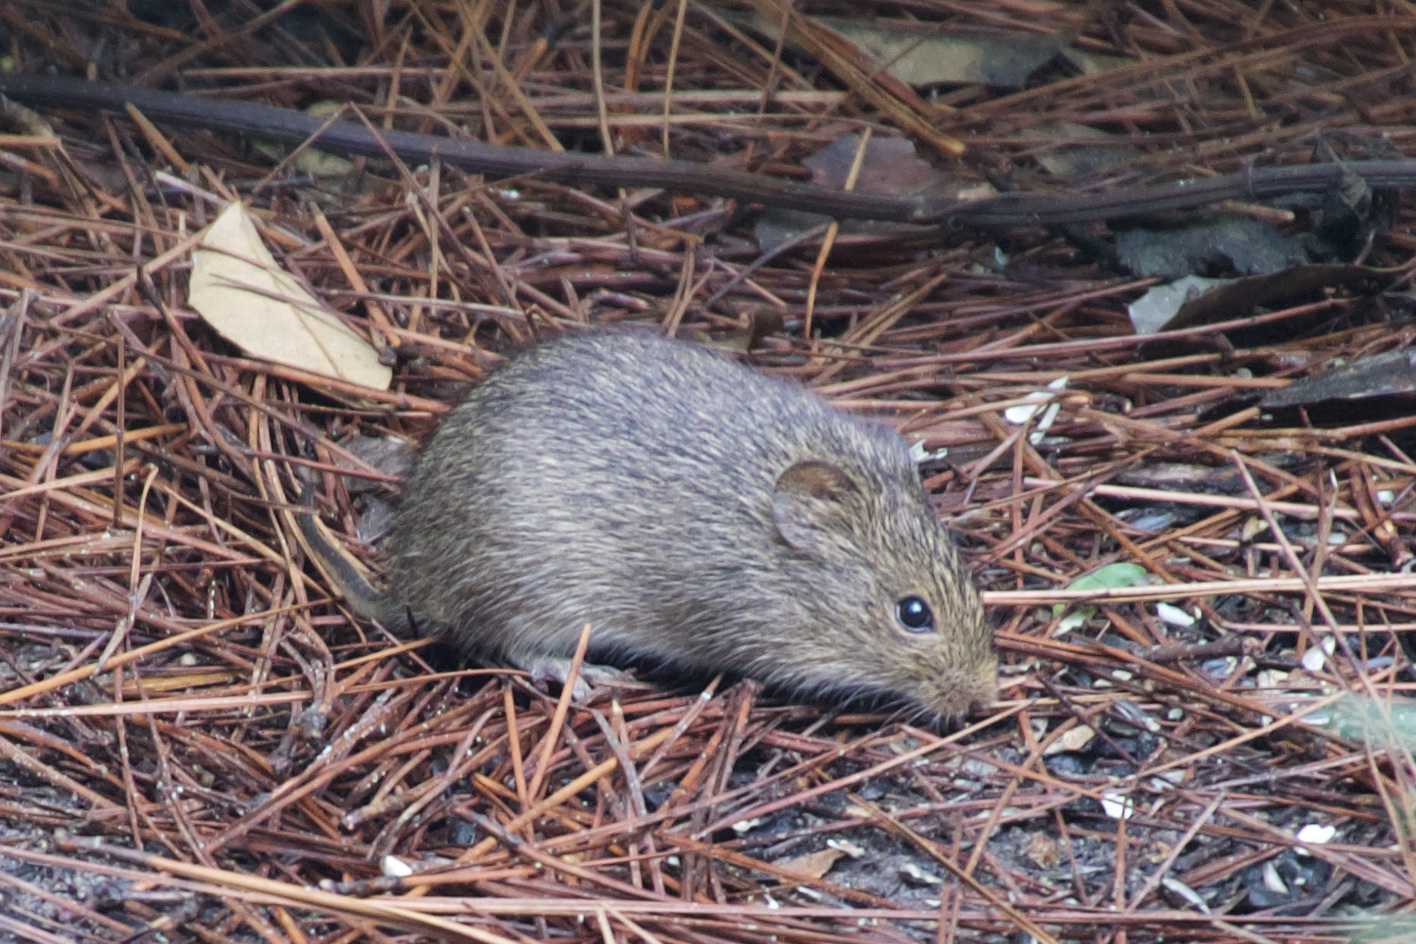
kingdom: Animalia
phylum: Chordata
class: Mammalia
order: Rodentia
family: Cricetidae
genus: Sigmodon
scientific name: Sigmodon hispidus
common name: Hispid cotton rat
